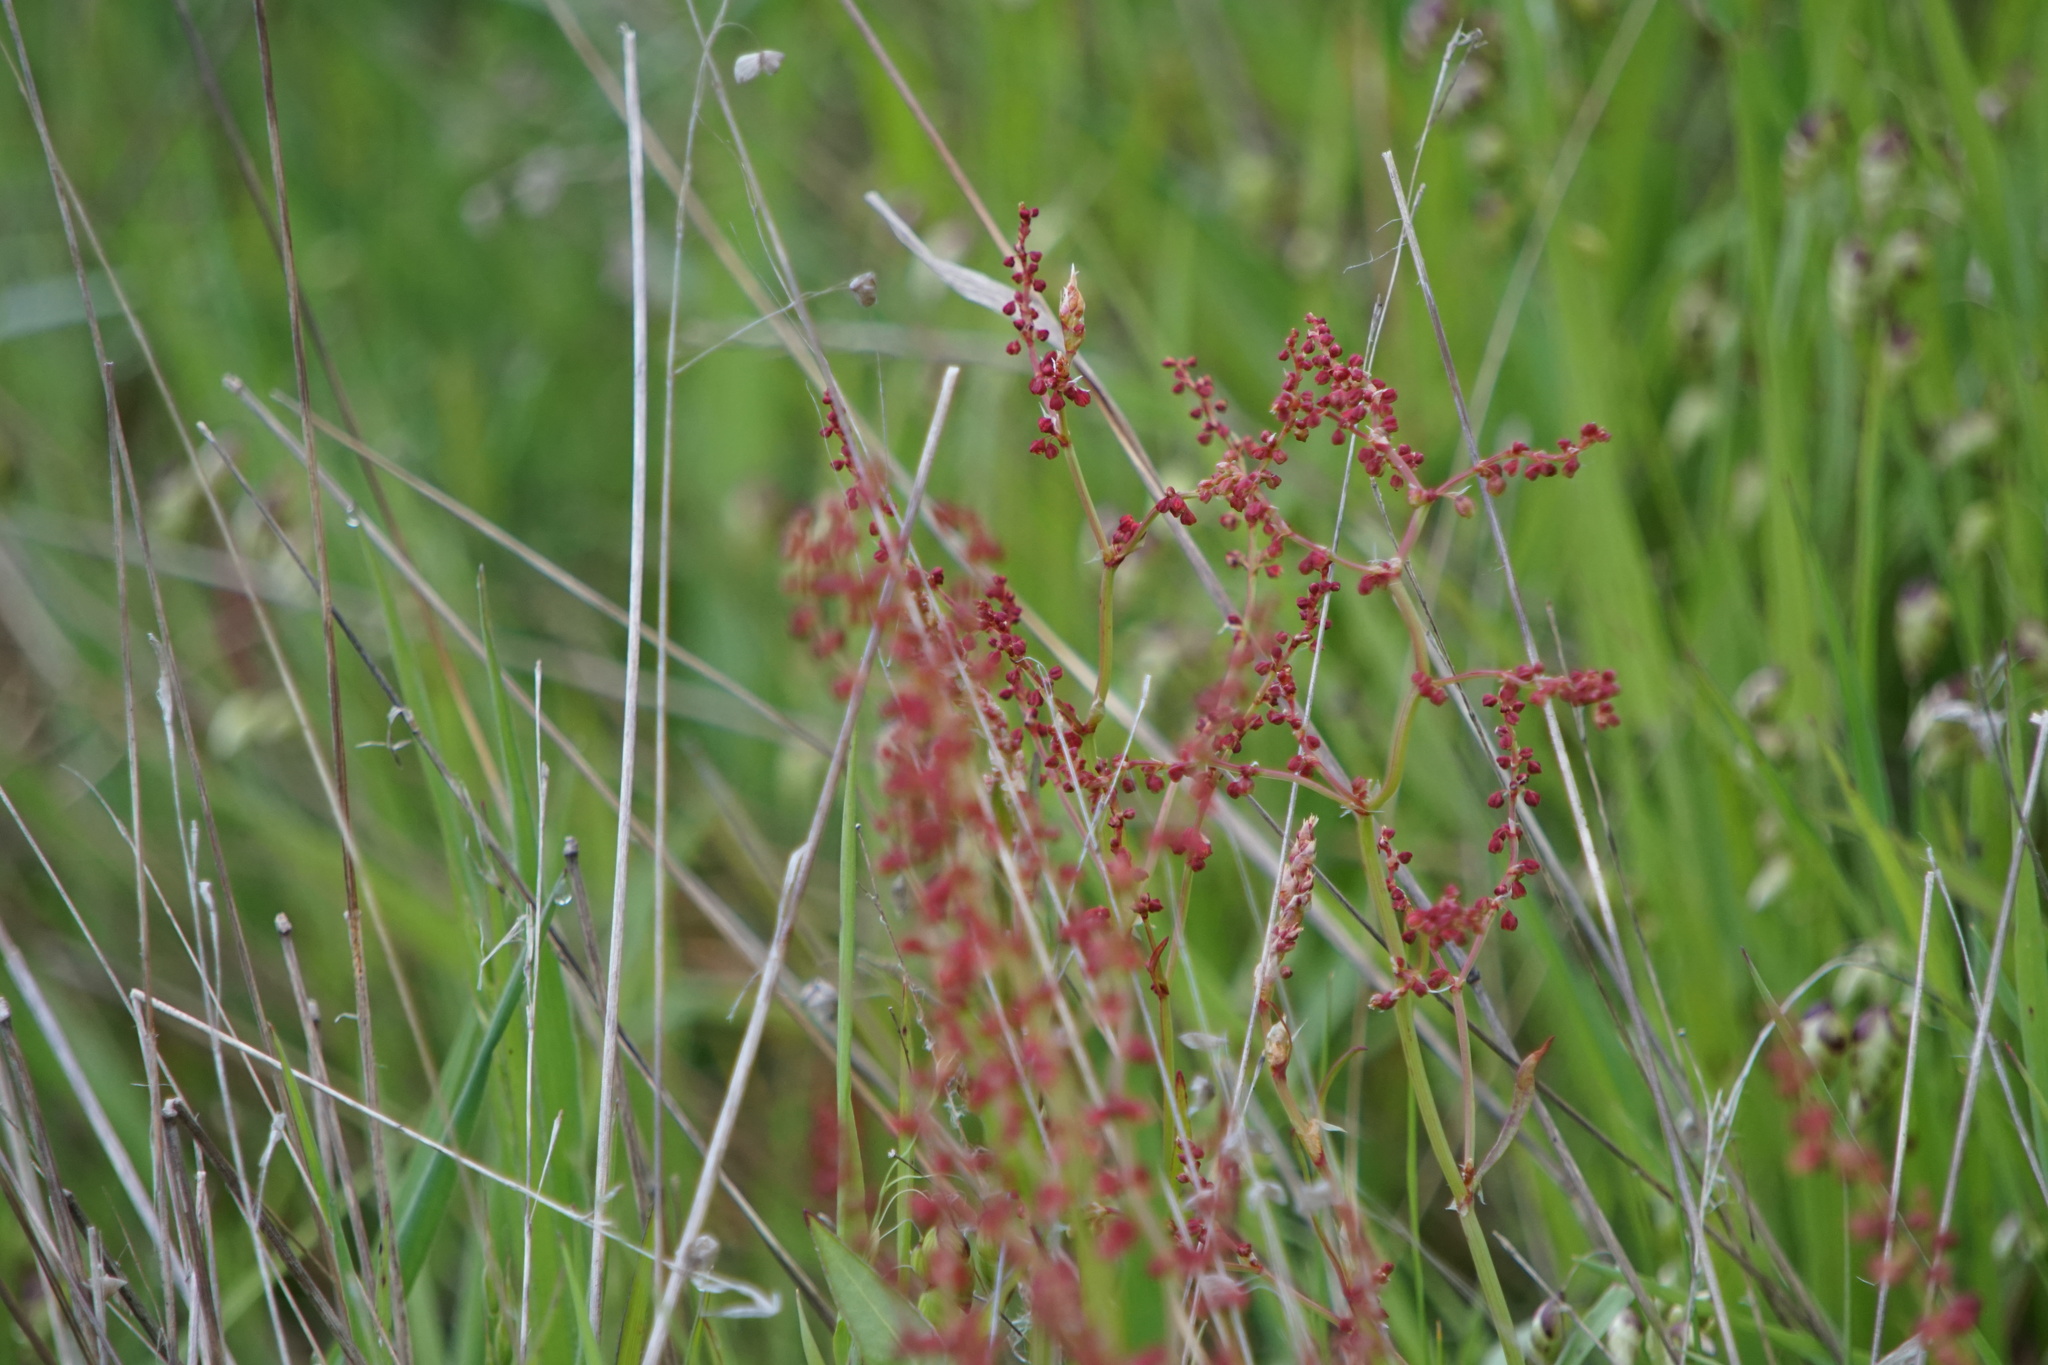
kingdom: Plantae
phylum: Tracheophyta
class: Magnoliopsida
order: Caryophyllales
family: Polygonaceae
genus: Rumex
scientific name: Rumex acetosella
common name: Common sheep sorrel
